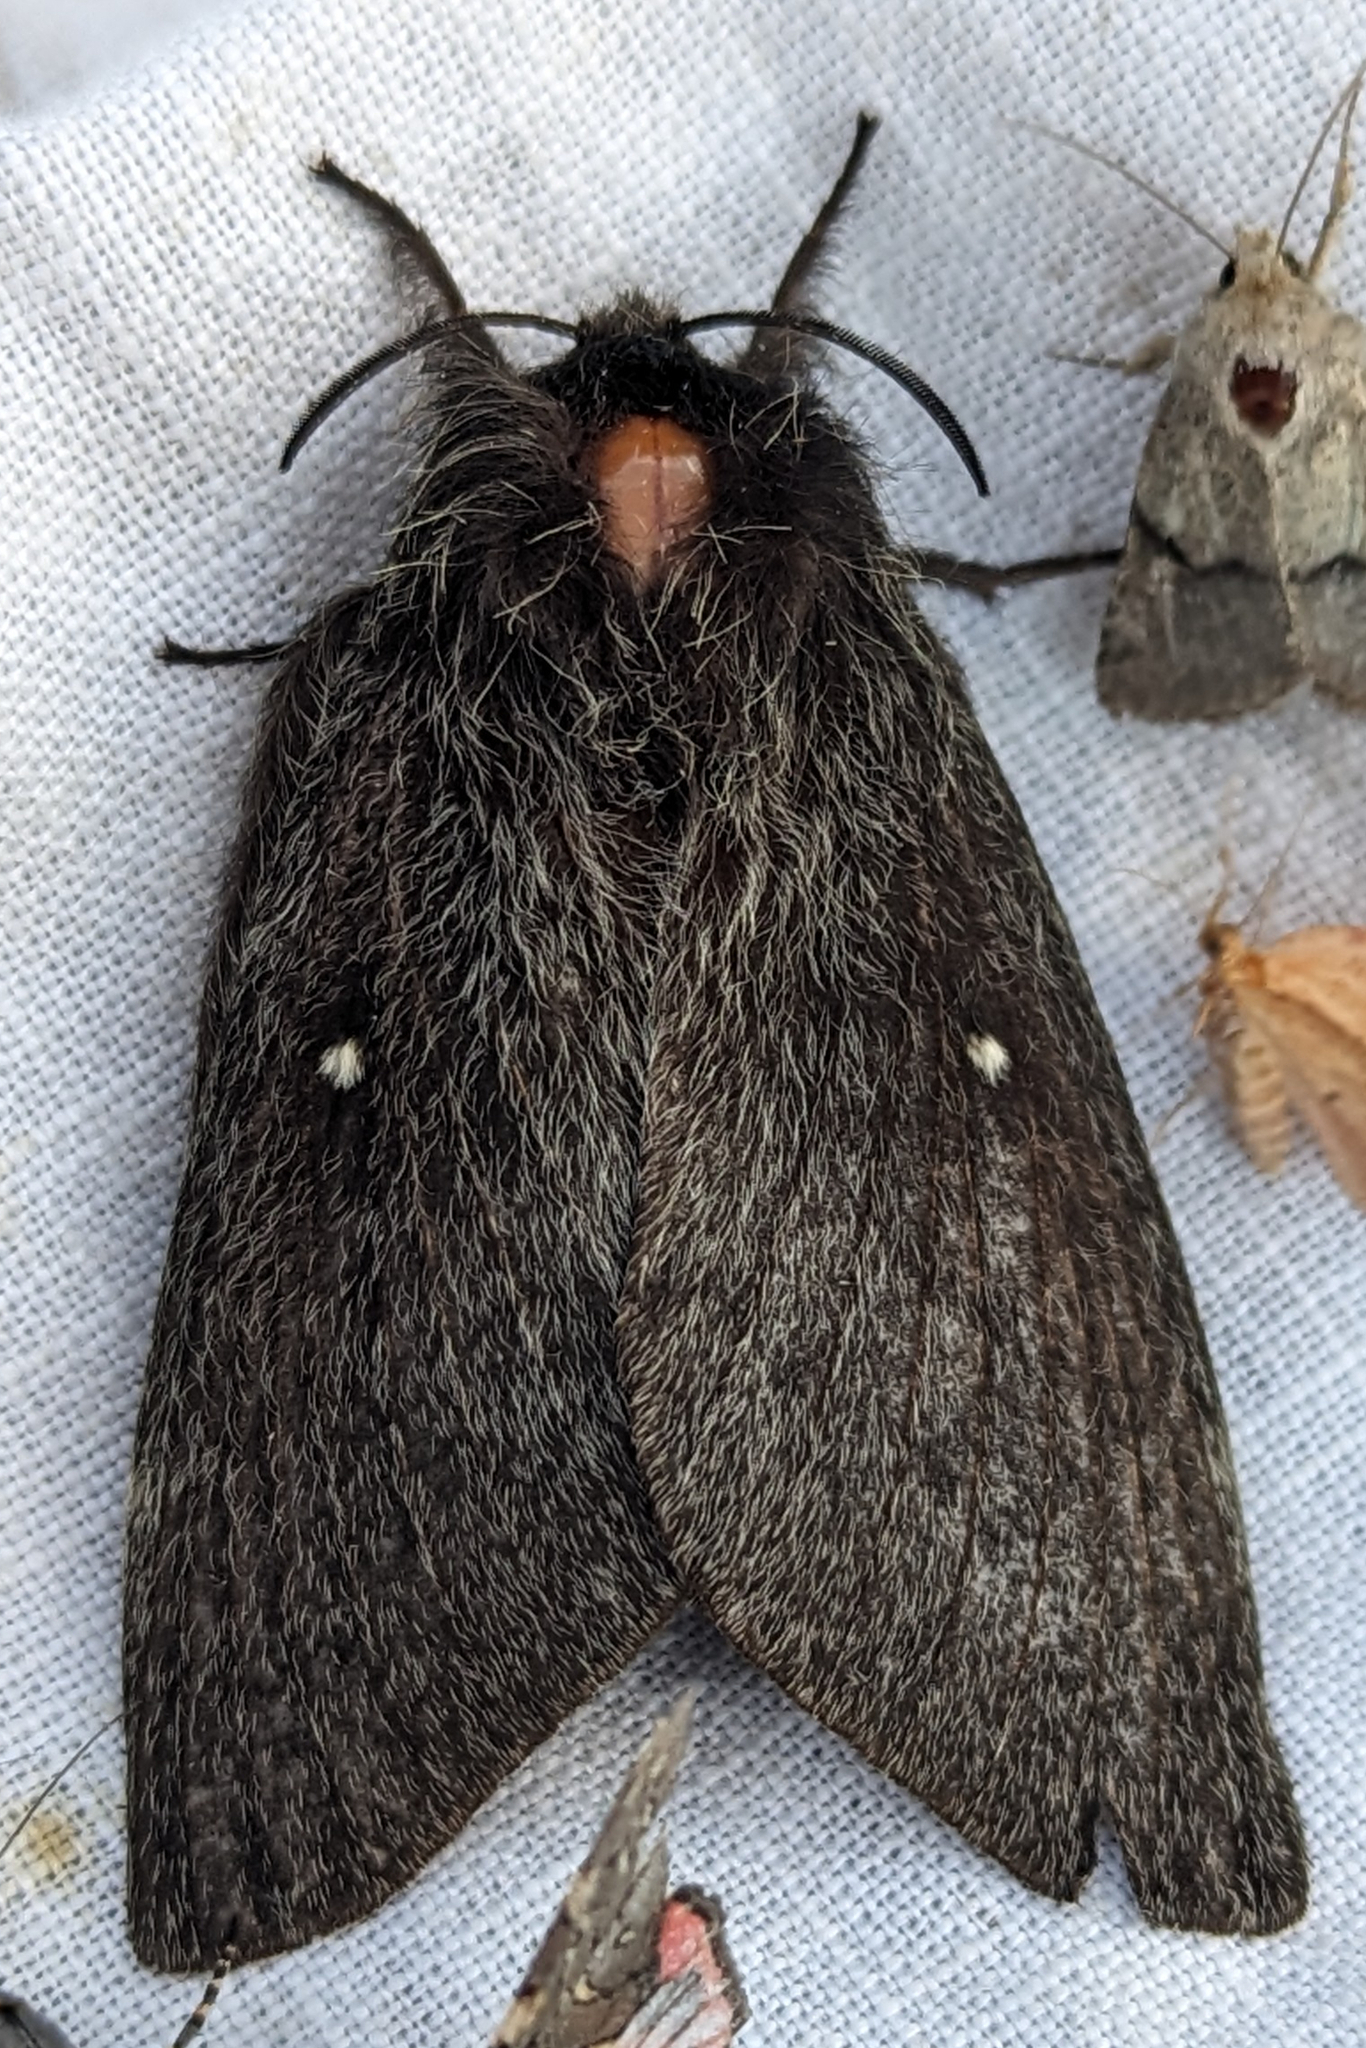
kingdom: Animalia
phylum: Arthropoda
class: Insecta
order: Lepidoptera
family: Lasiocampidae
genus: Gloveria
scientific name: Gloveria gargamelle
